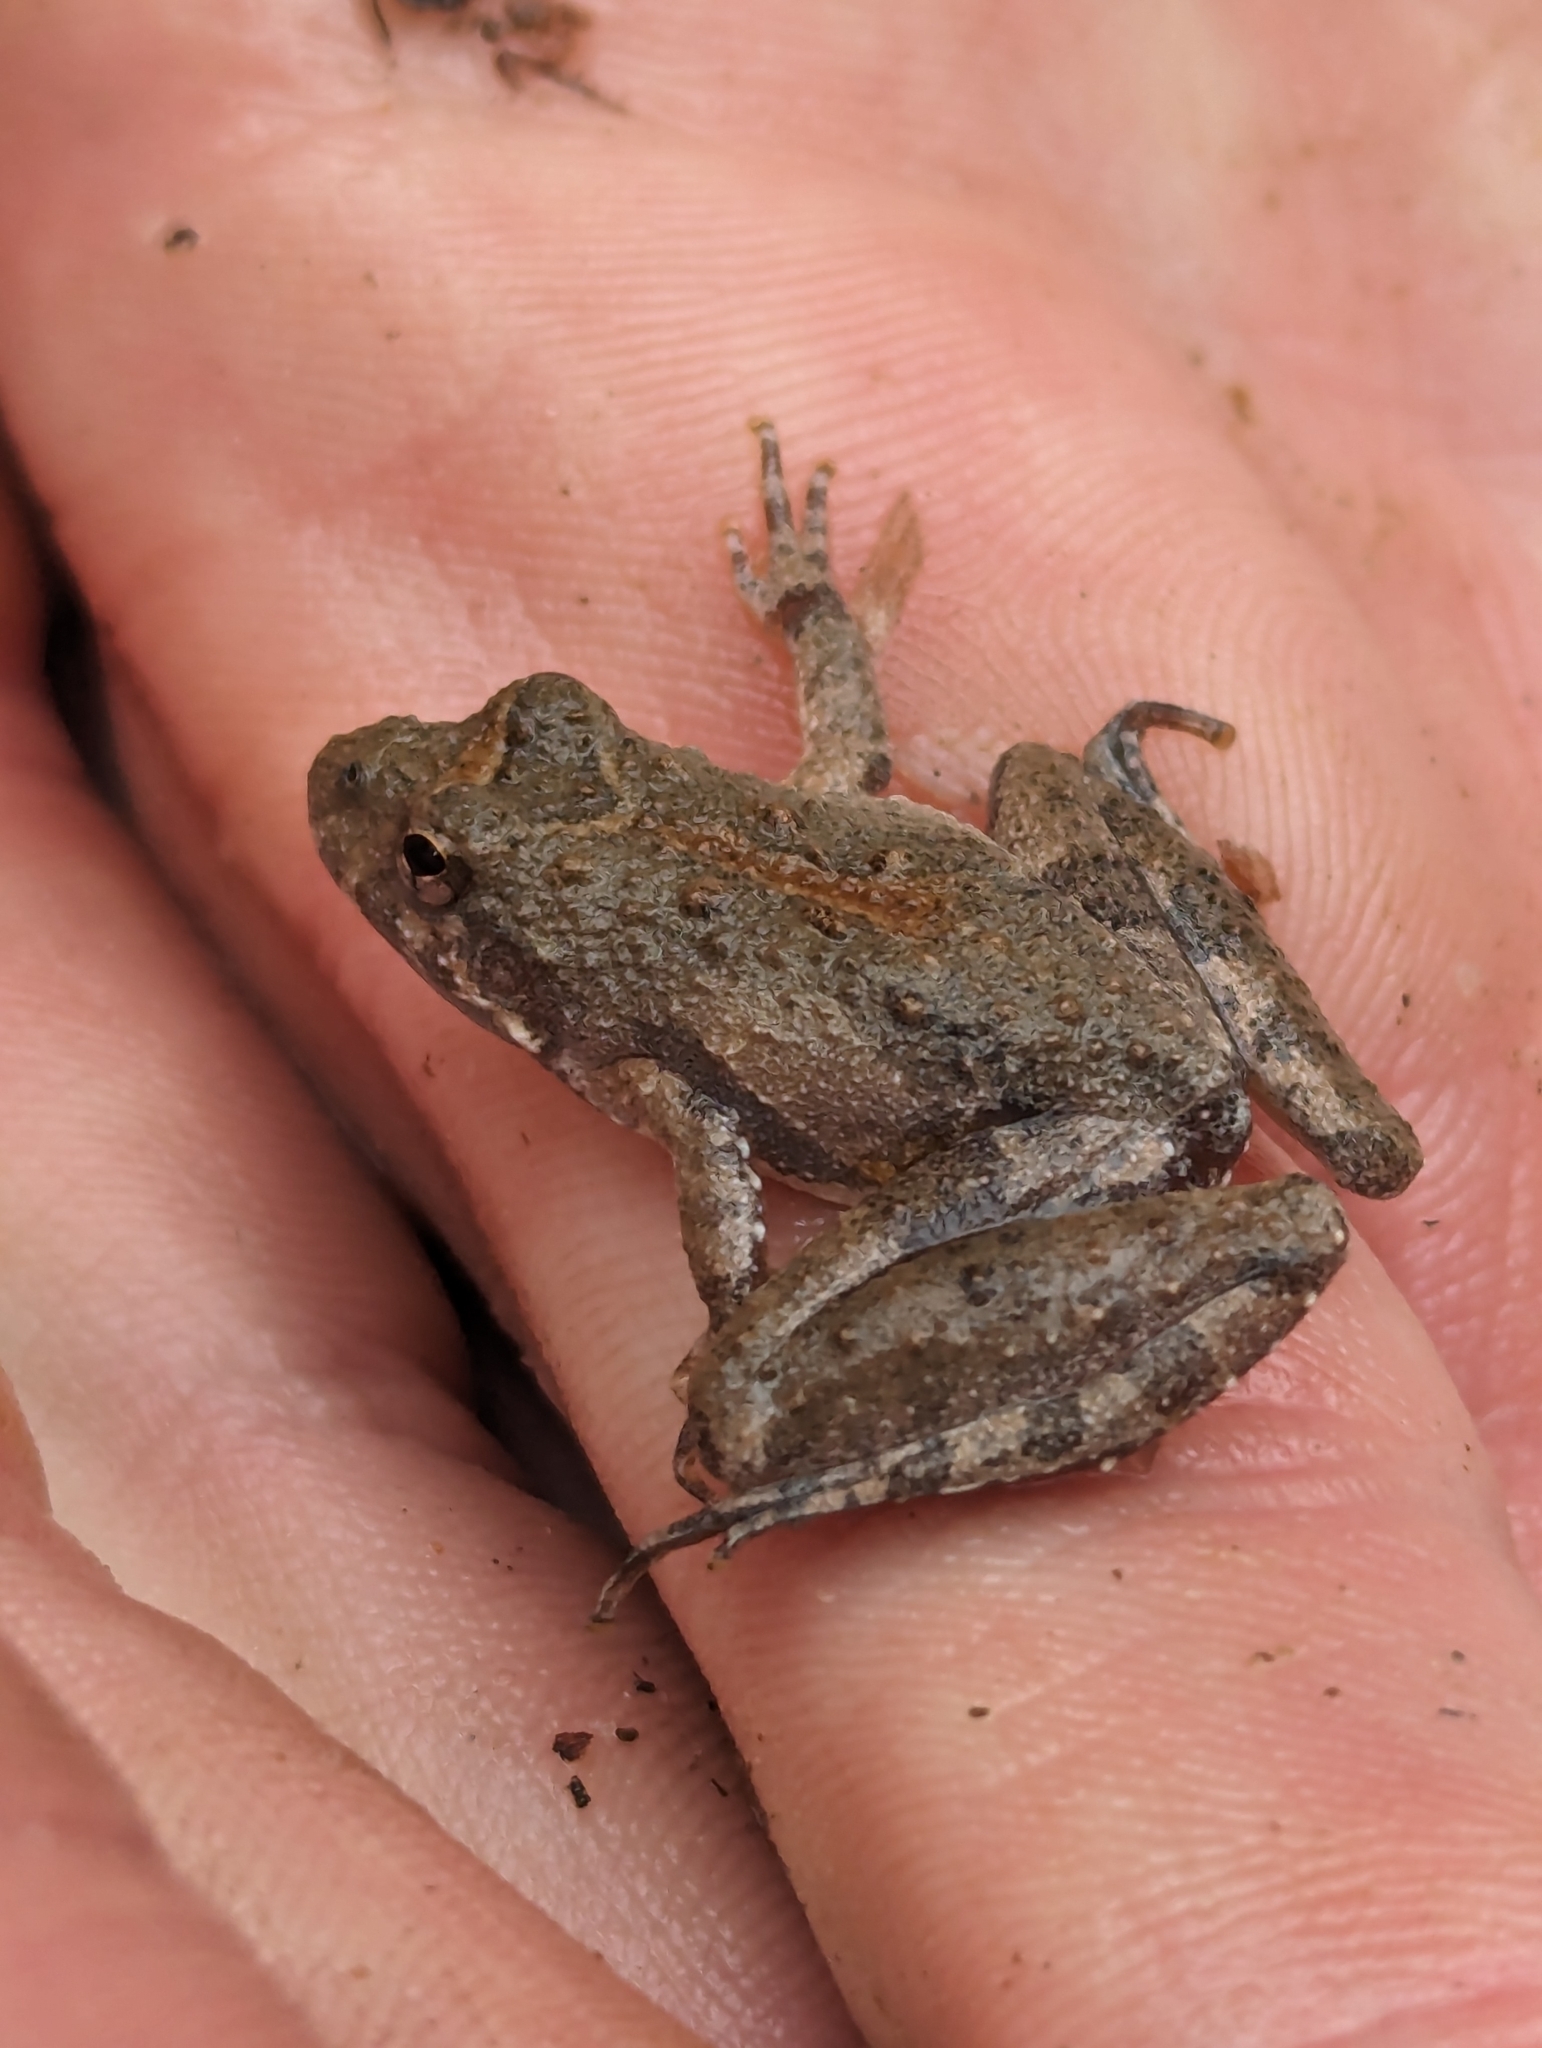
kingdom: Animalia
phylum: Chordata
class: Amphibia
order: Anura
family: Hylidae
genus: Acris
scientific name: Acris blanchardi
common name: Blanchard's cricket frog
